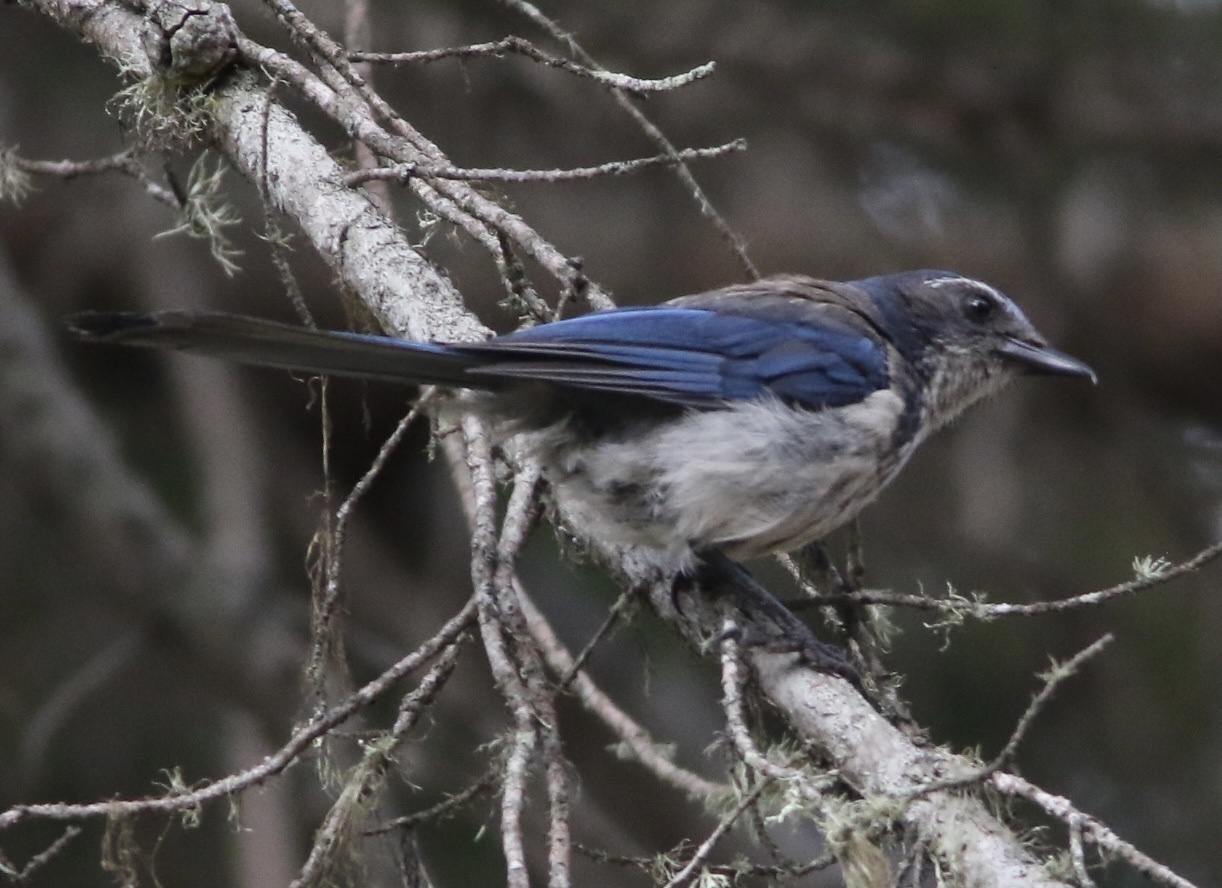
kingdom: Animalia
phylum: Chordata
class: Aves
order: Passeriformes
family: Corvidae
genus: Aphelocoma
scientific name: Aphelocoma californica
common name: California scrub-jay
